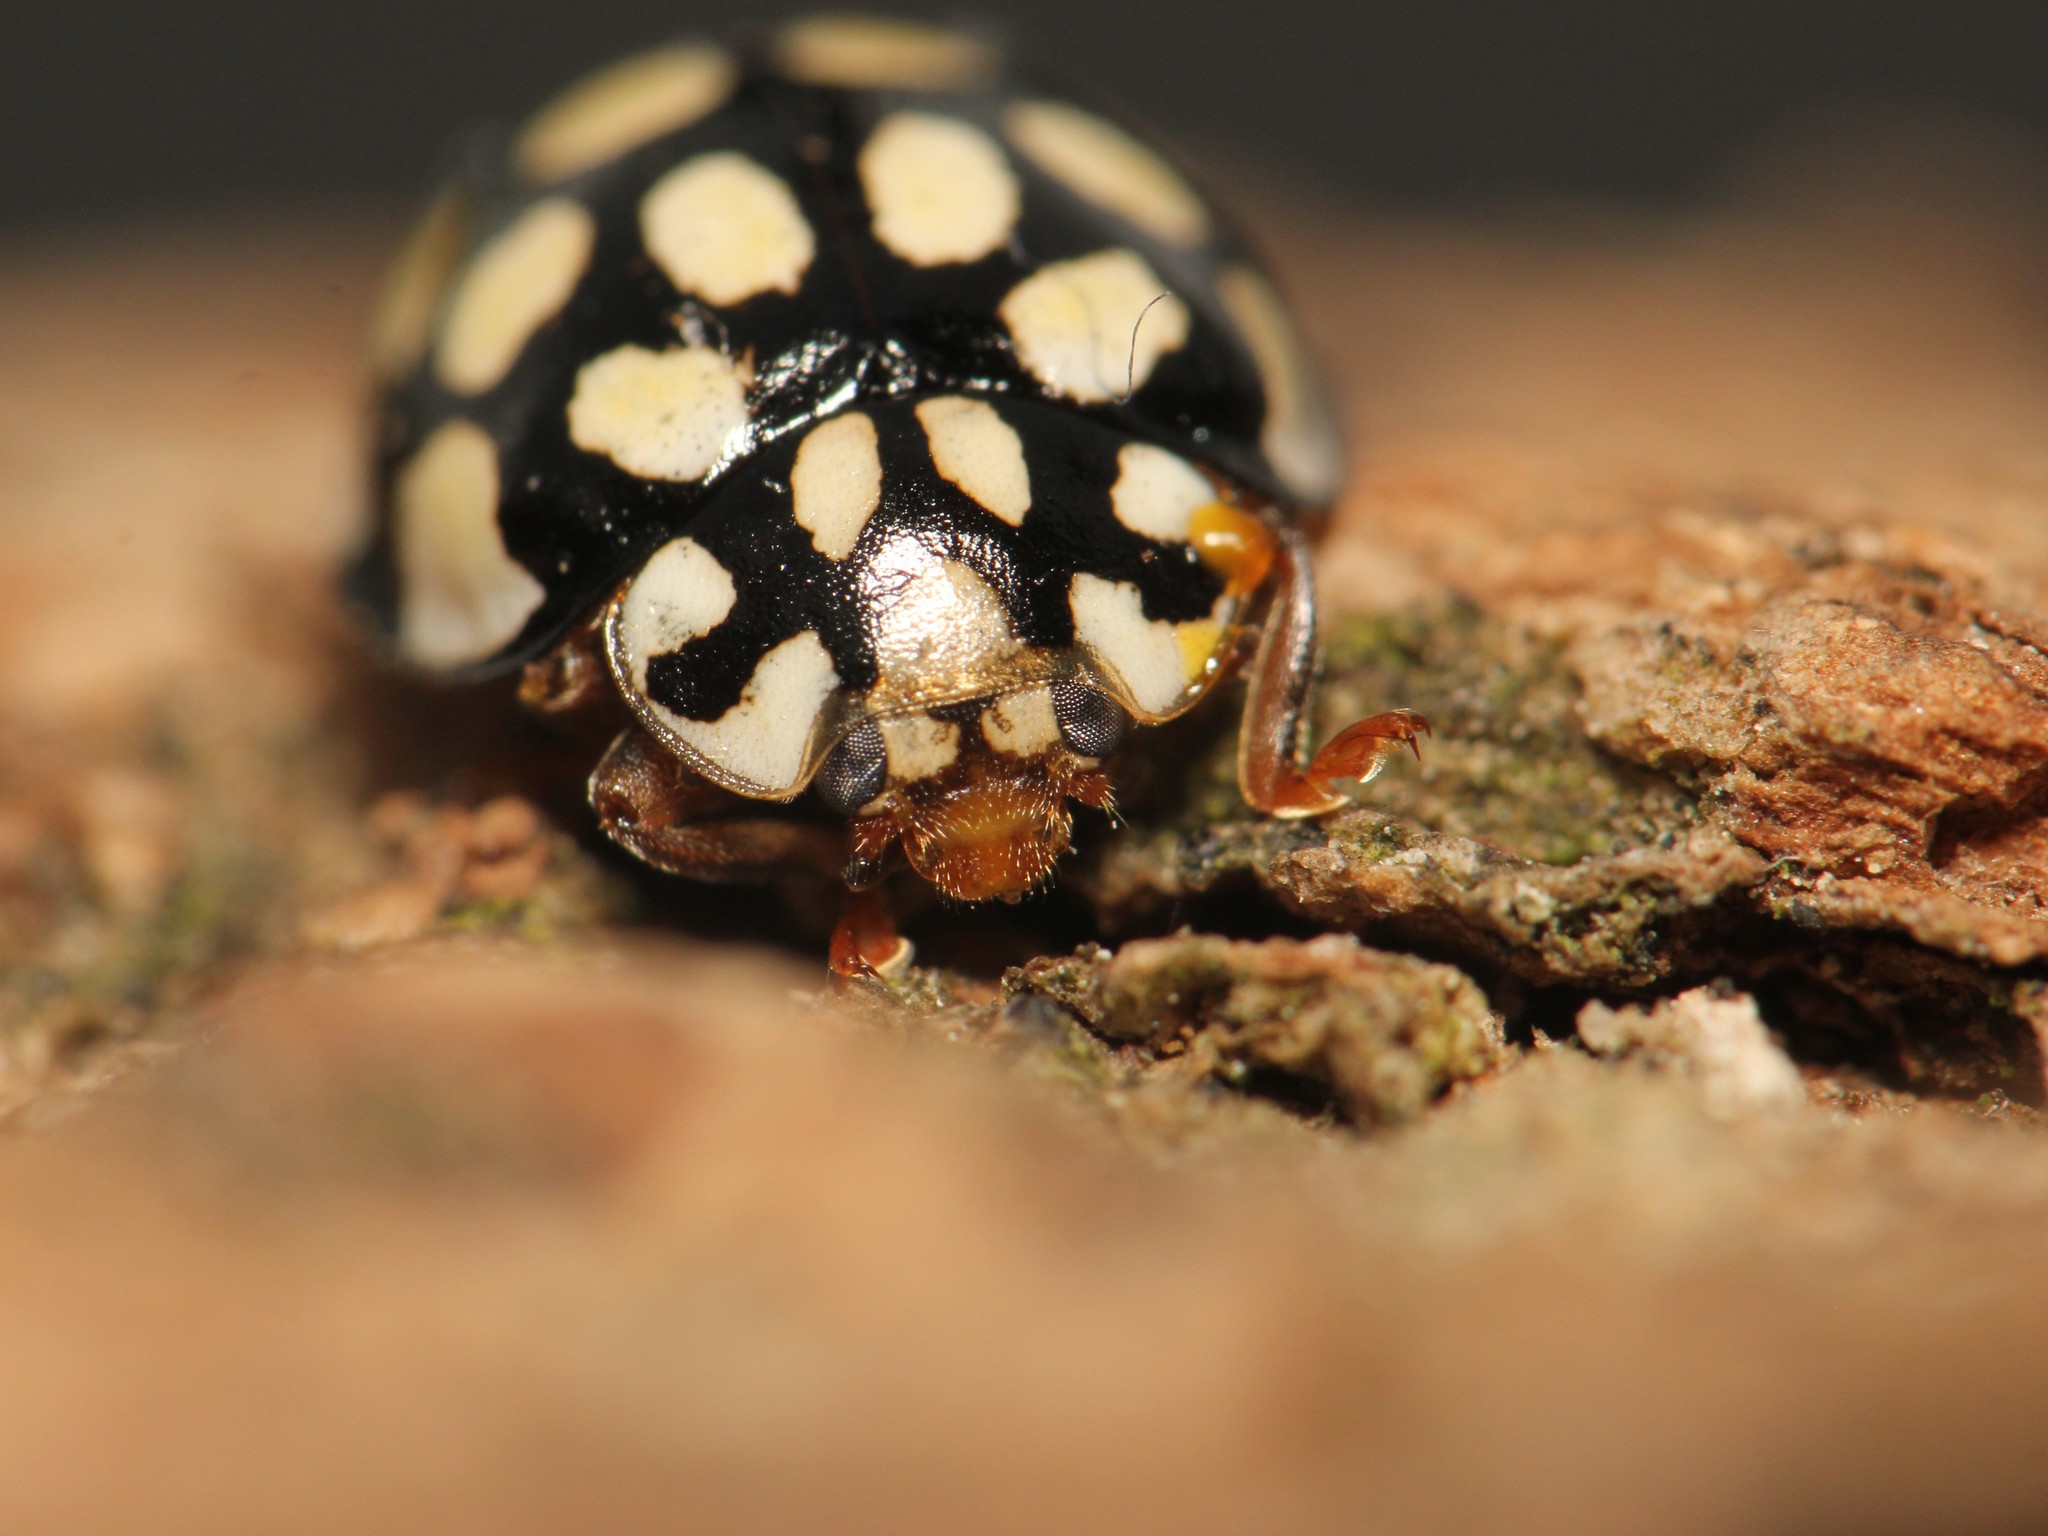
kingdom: Animalia
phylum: Arthropoda
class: Insecta
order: Coleoptera
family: Coccinellidae
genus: Sospita
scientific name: Sospita vigintiguttata
